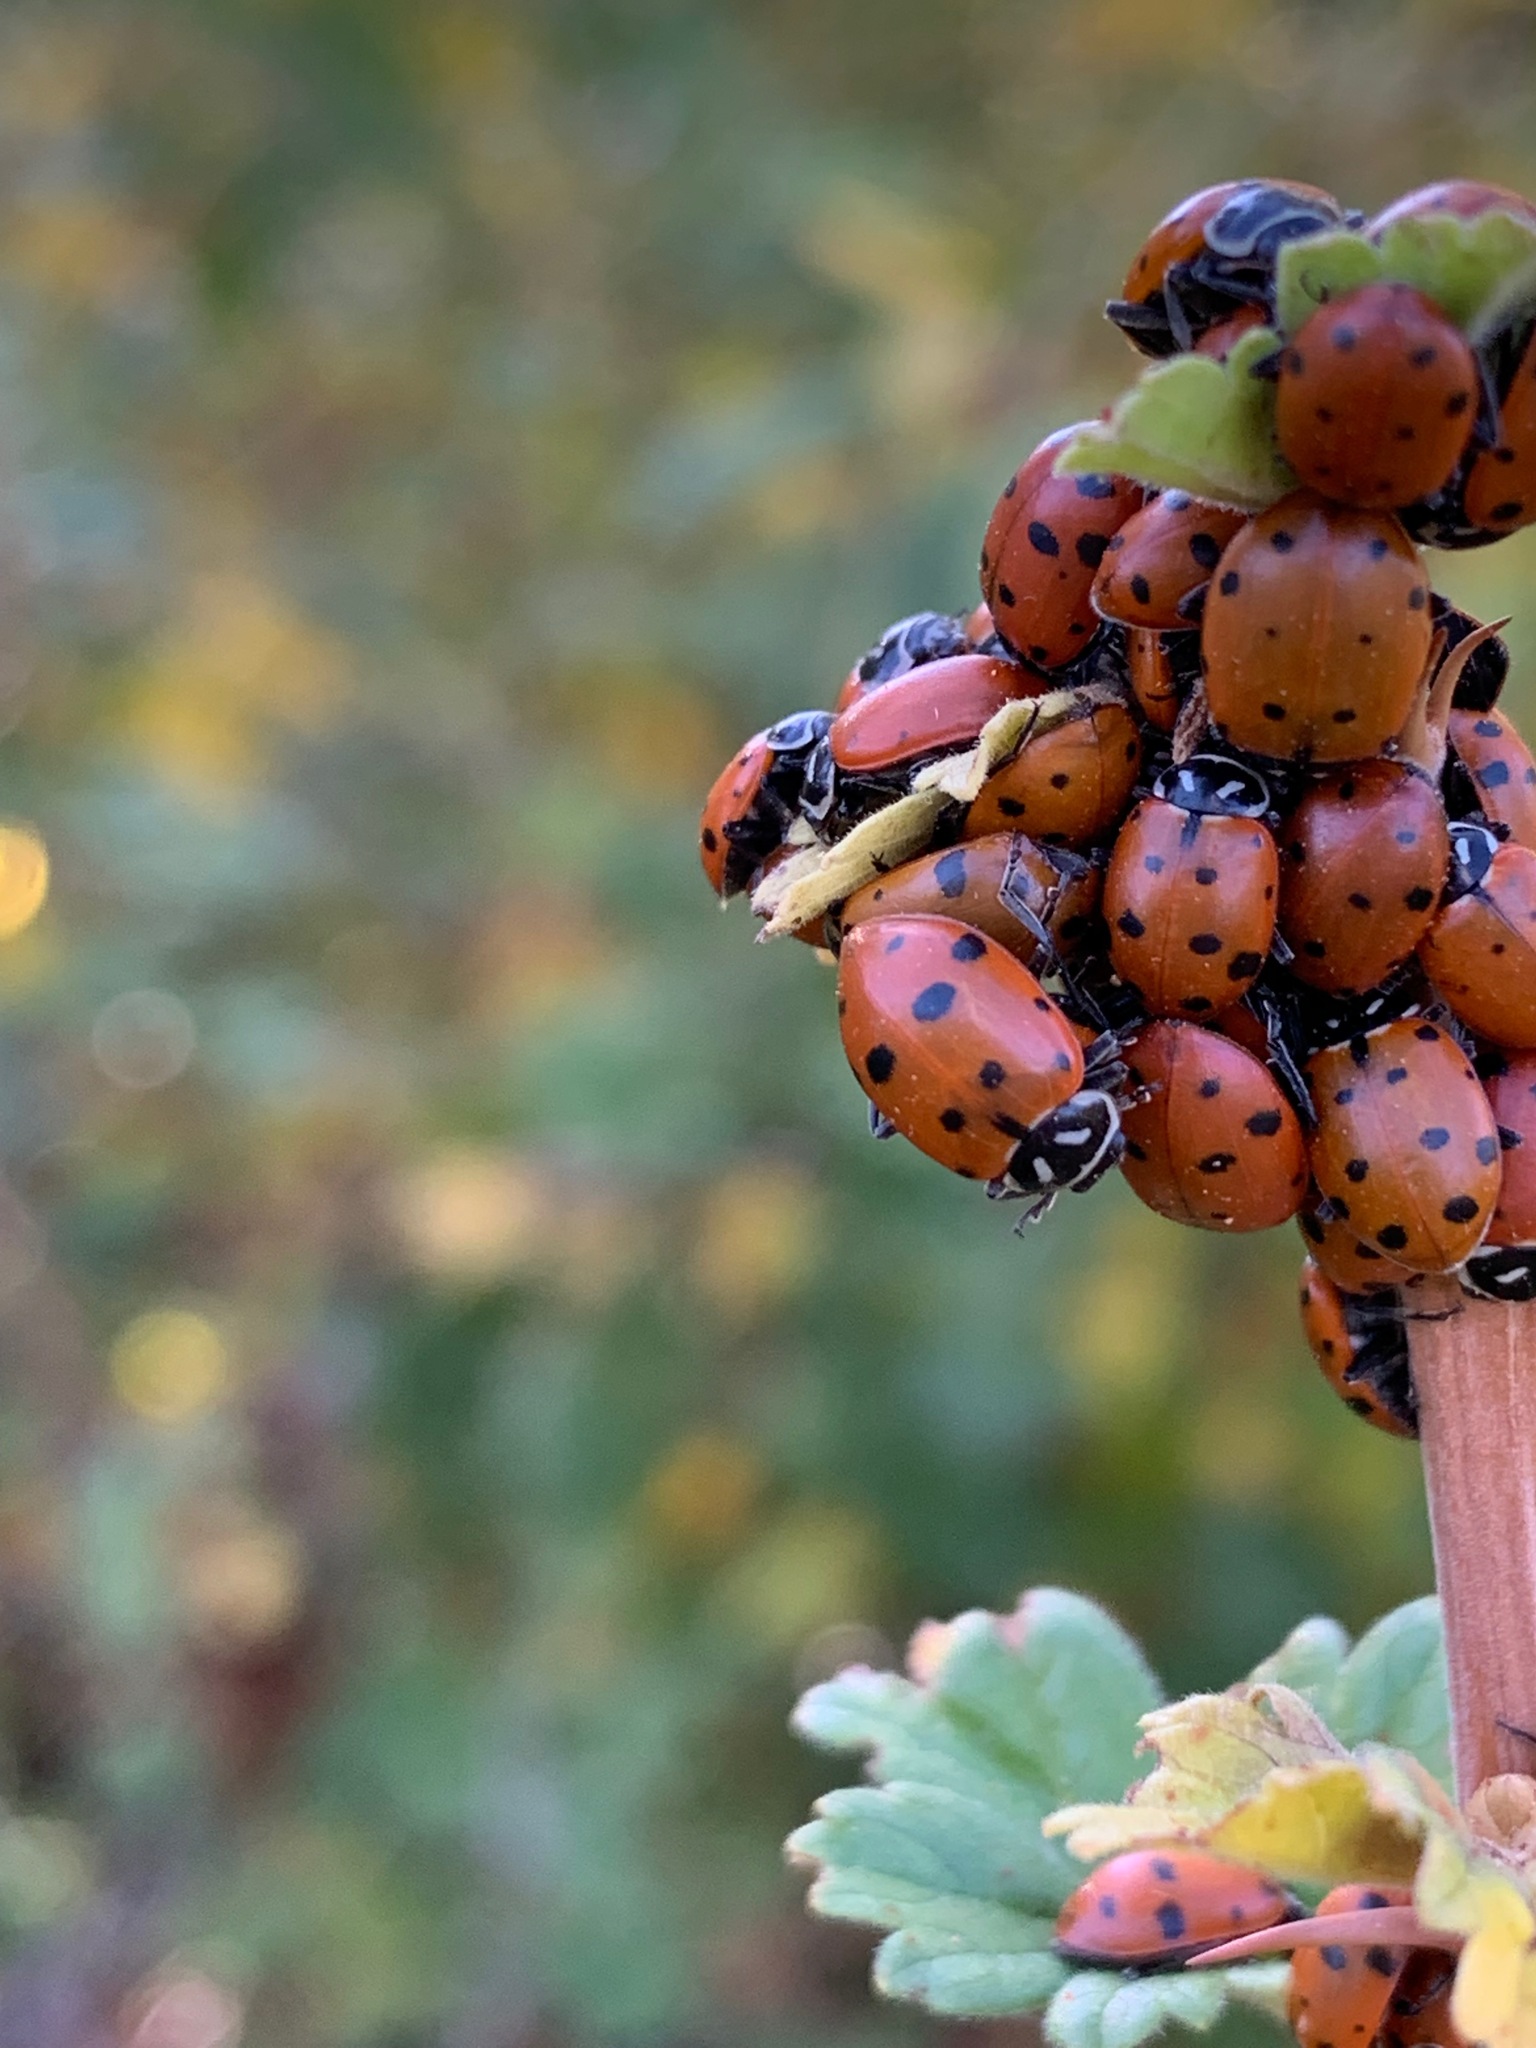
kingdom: Animalia
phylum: Arthropoda
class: Insecta
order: Coleoptera
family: Coccinellidae
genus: Hippodamia
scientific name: Hippodamia convergens
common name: Convergent lady beetle
